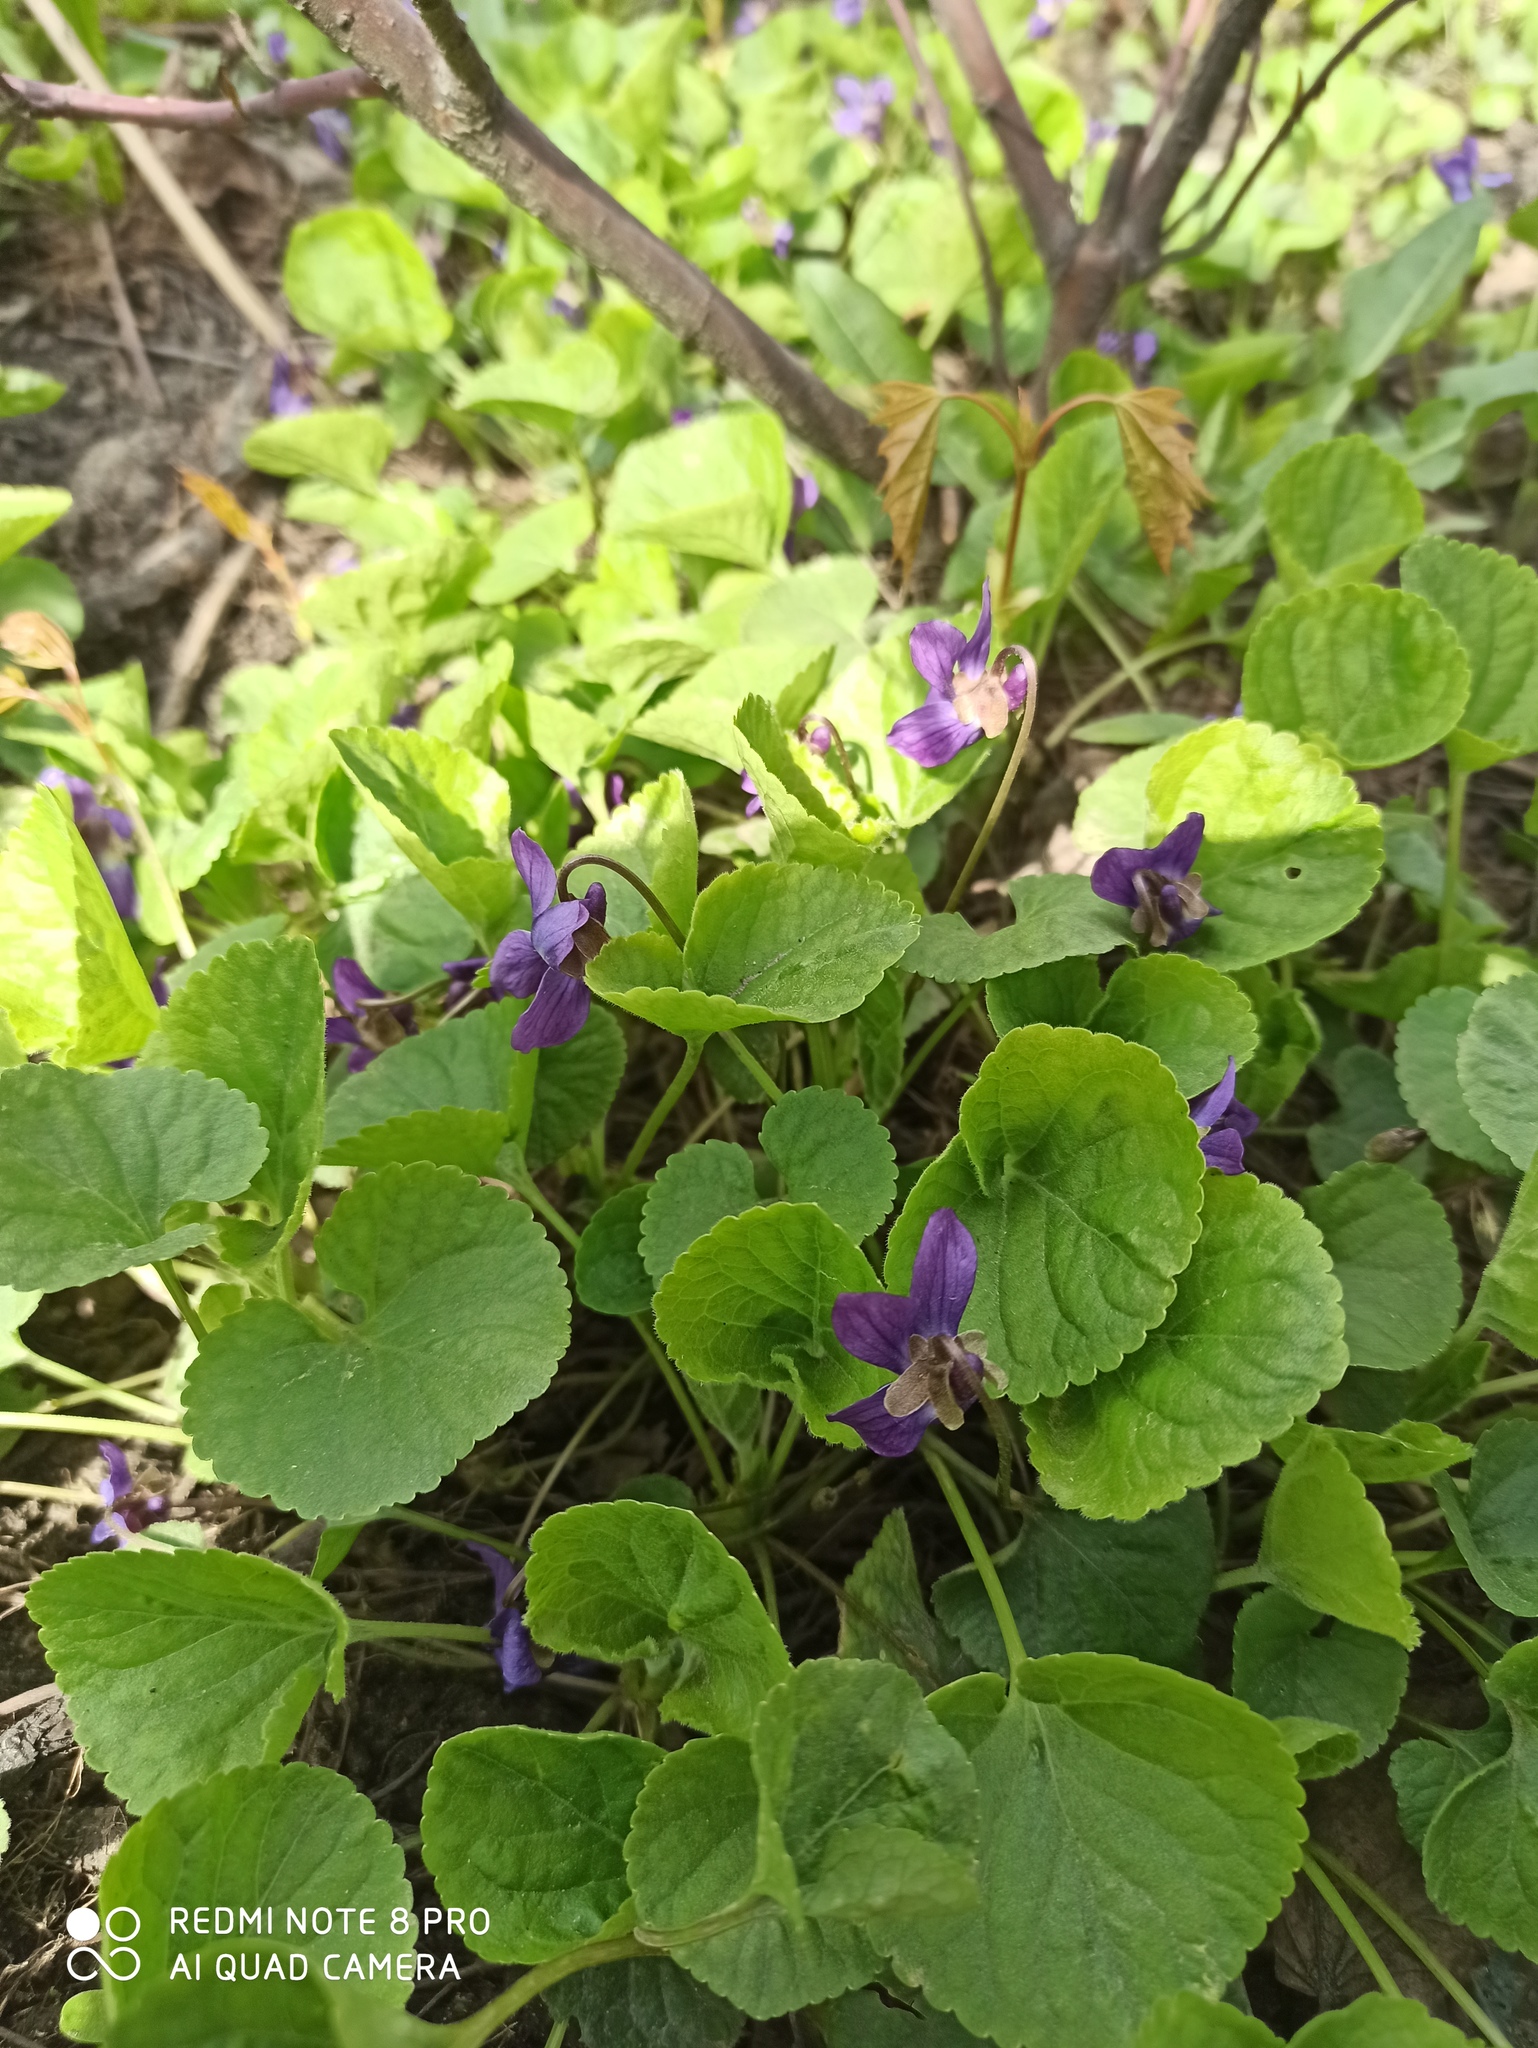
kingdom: Plantae
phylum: Tracheophyta
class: Magnoliopsida
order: Malpighiales
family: Violaceae
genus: Viola
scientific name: Viola odorata
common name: Sweet violet
